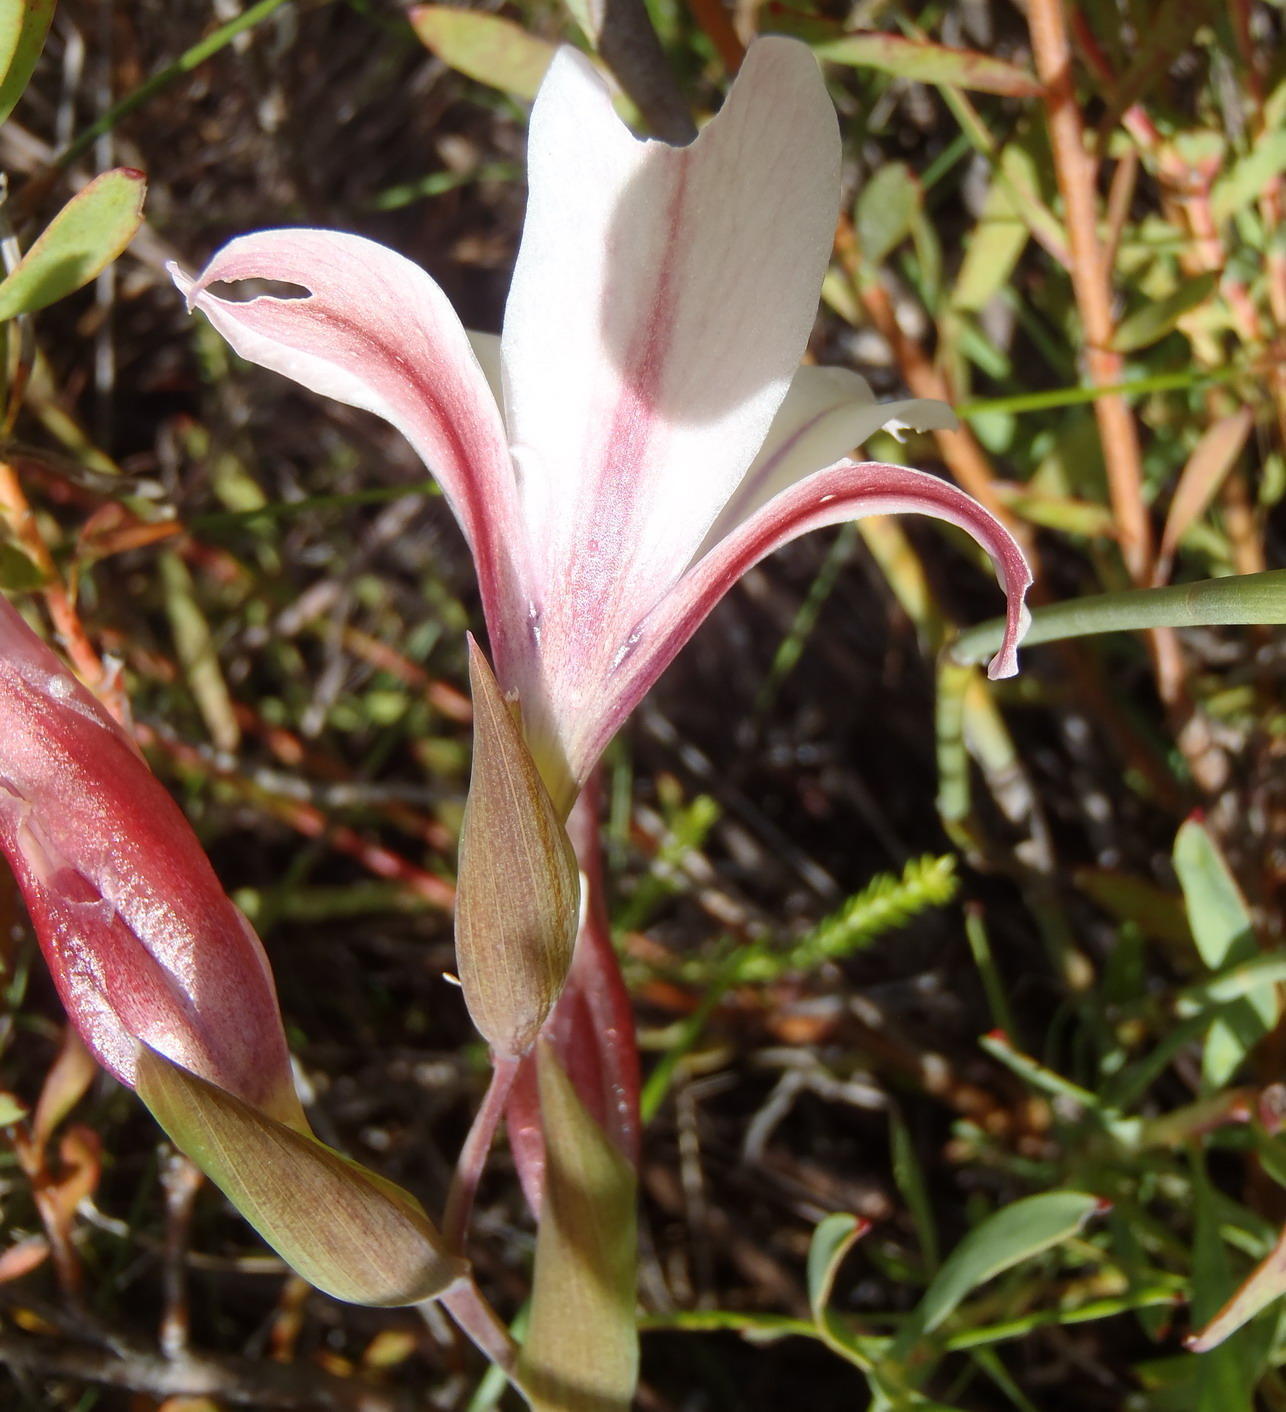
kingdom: Plantae
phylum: Tracheophyta
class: Liliopsida
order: Asparagales
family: Iridaceae
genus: Gladiolus
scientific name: Gladiolus floribundus
